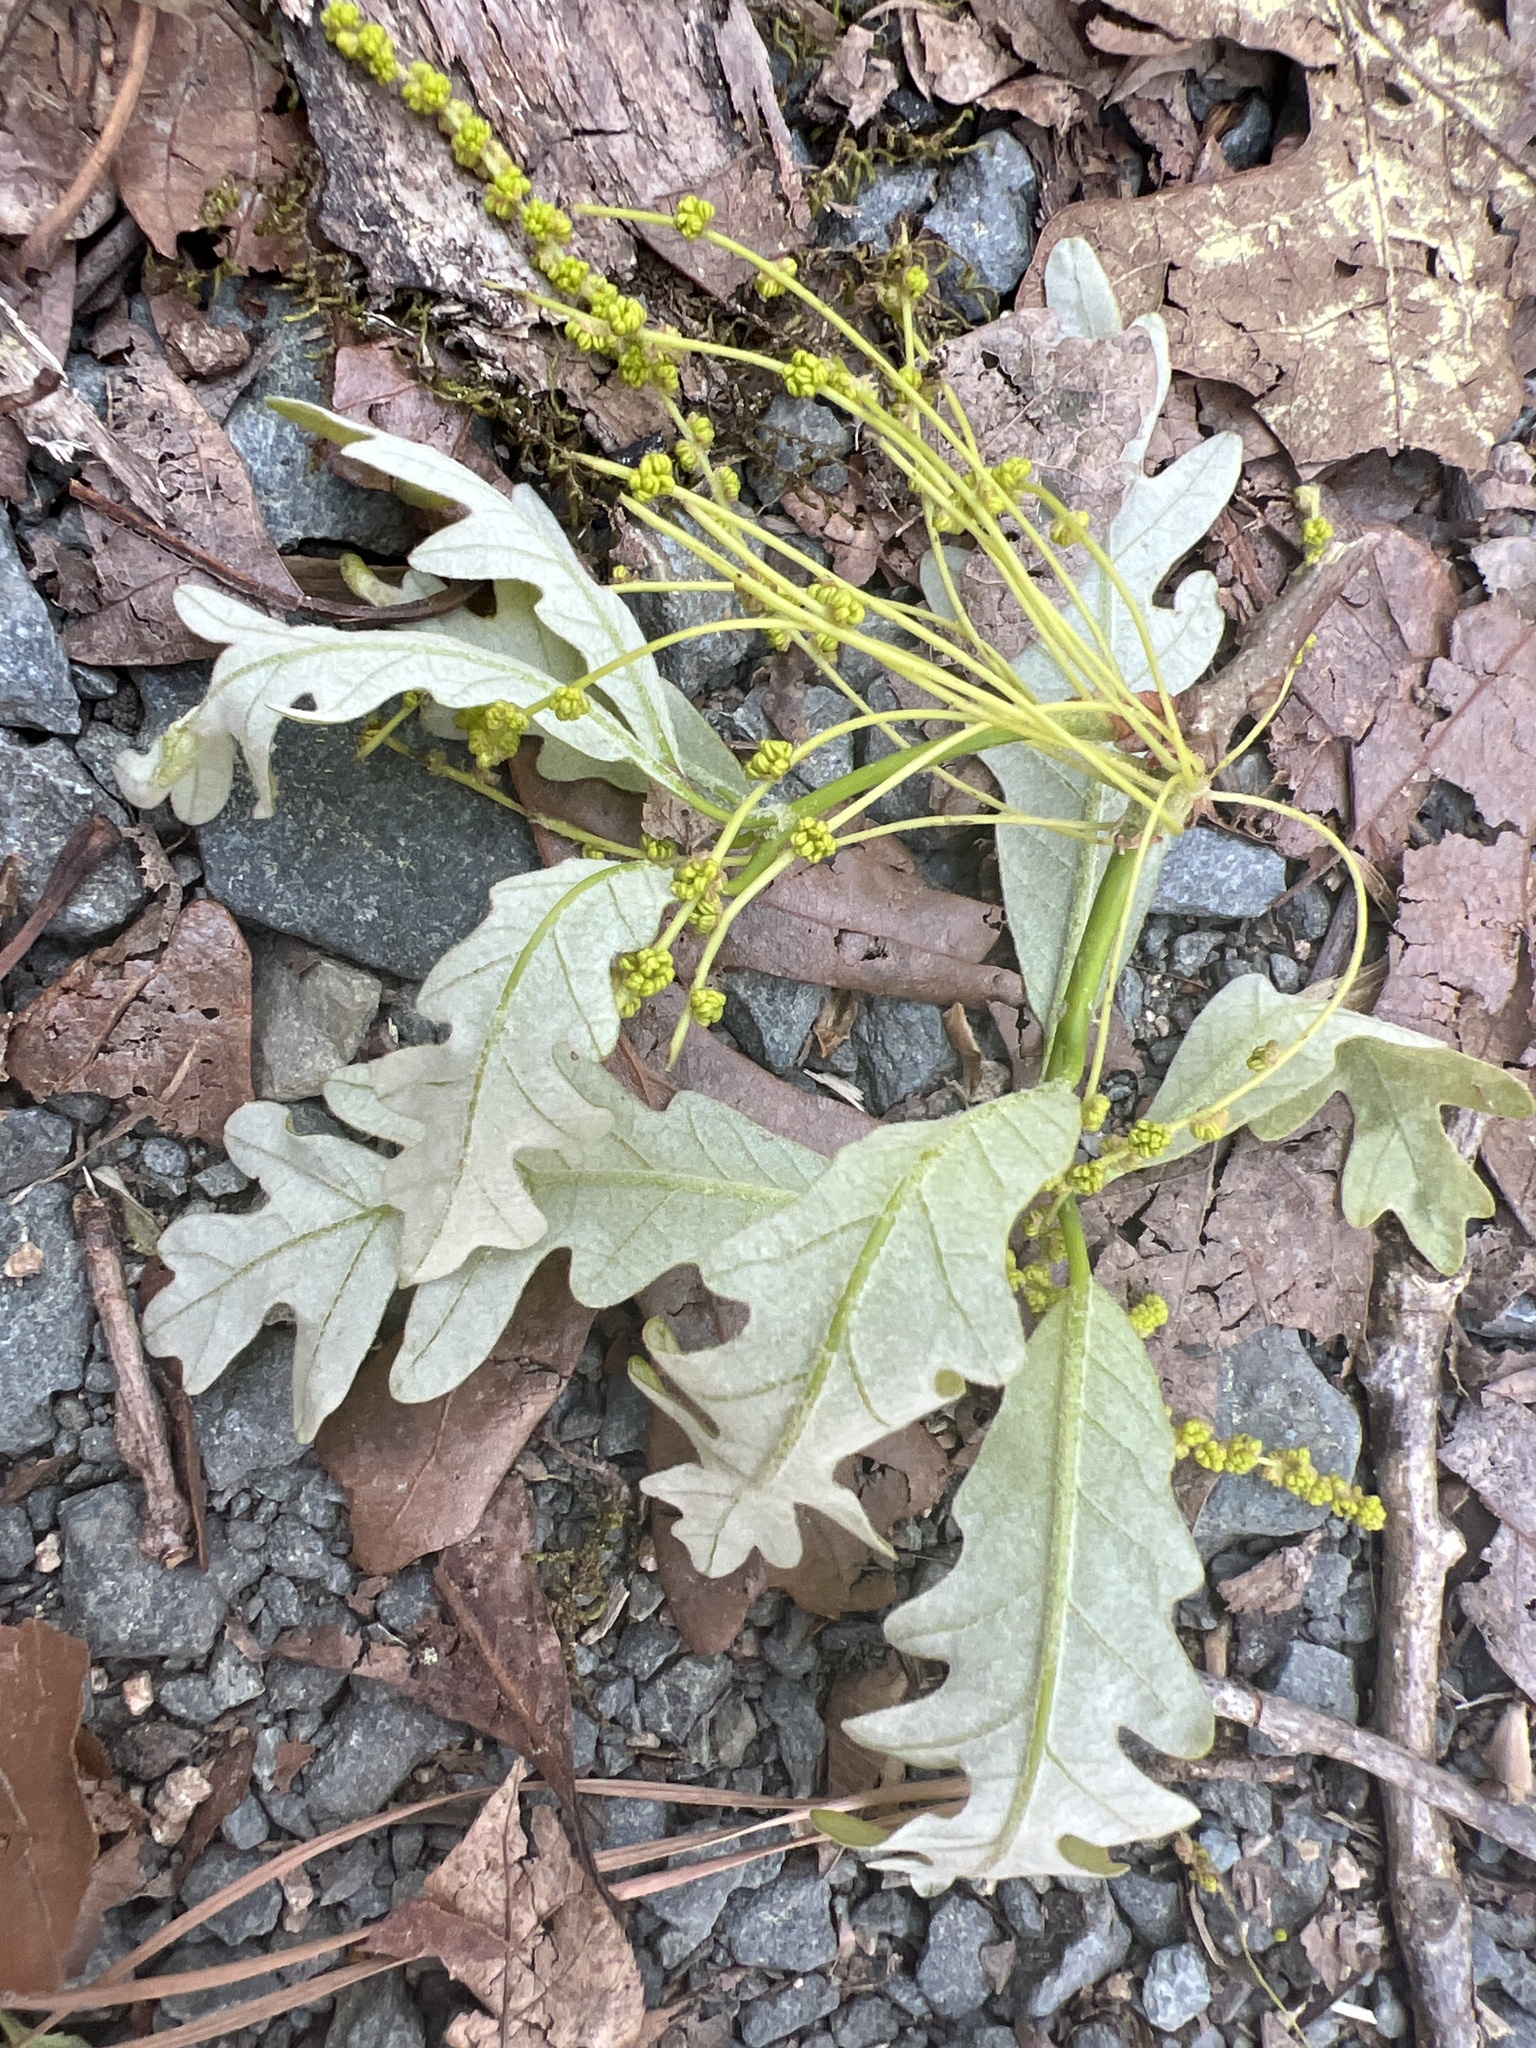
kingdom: Plantae
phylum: Tracheophyta
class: Magnoliopsida
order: Fagales
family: Fagaceae
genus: Quercus
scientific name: Quercus alba
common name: White oak
